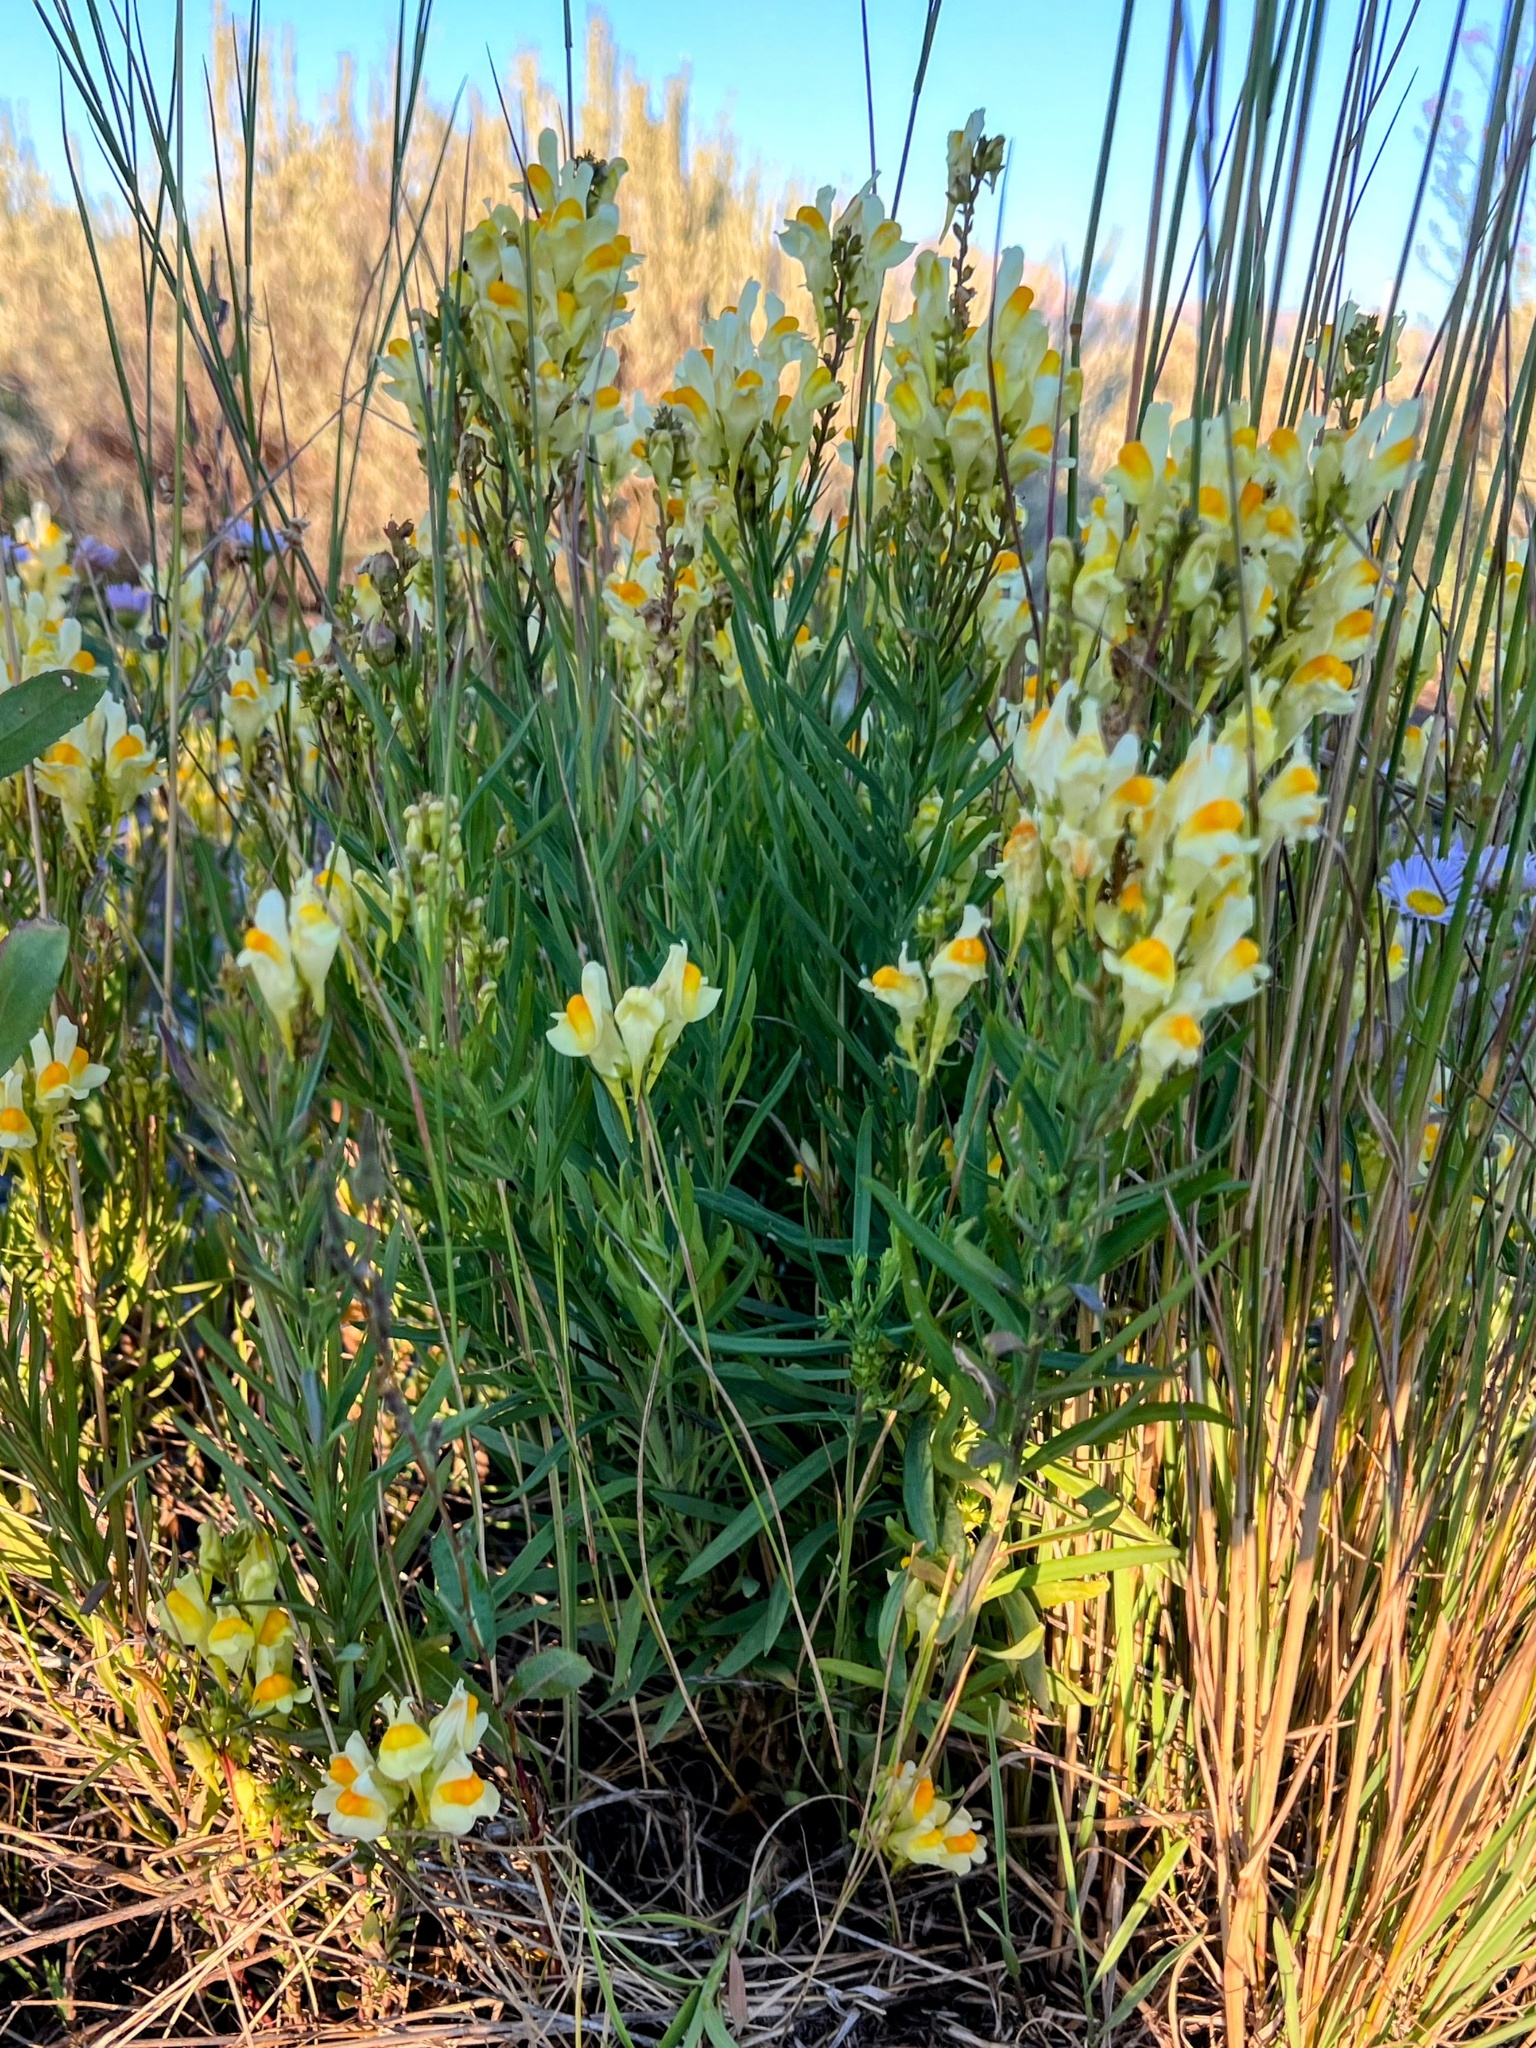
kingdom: Plantae
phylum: Tracheophyta
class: Magnoliopsida
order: Lamiales
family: Plantaginaceae
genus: Linaria
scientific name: Linaria vulgaris
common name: Butter and eggs
